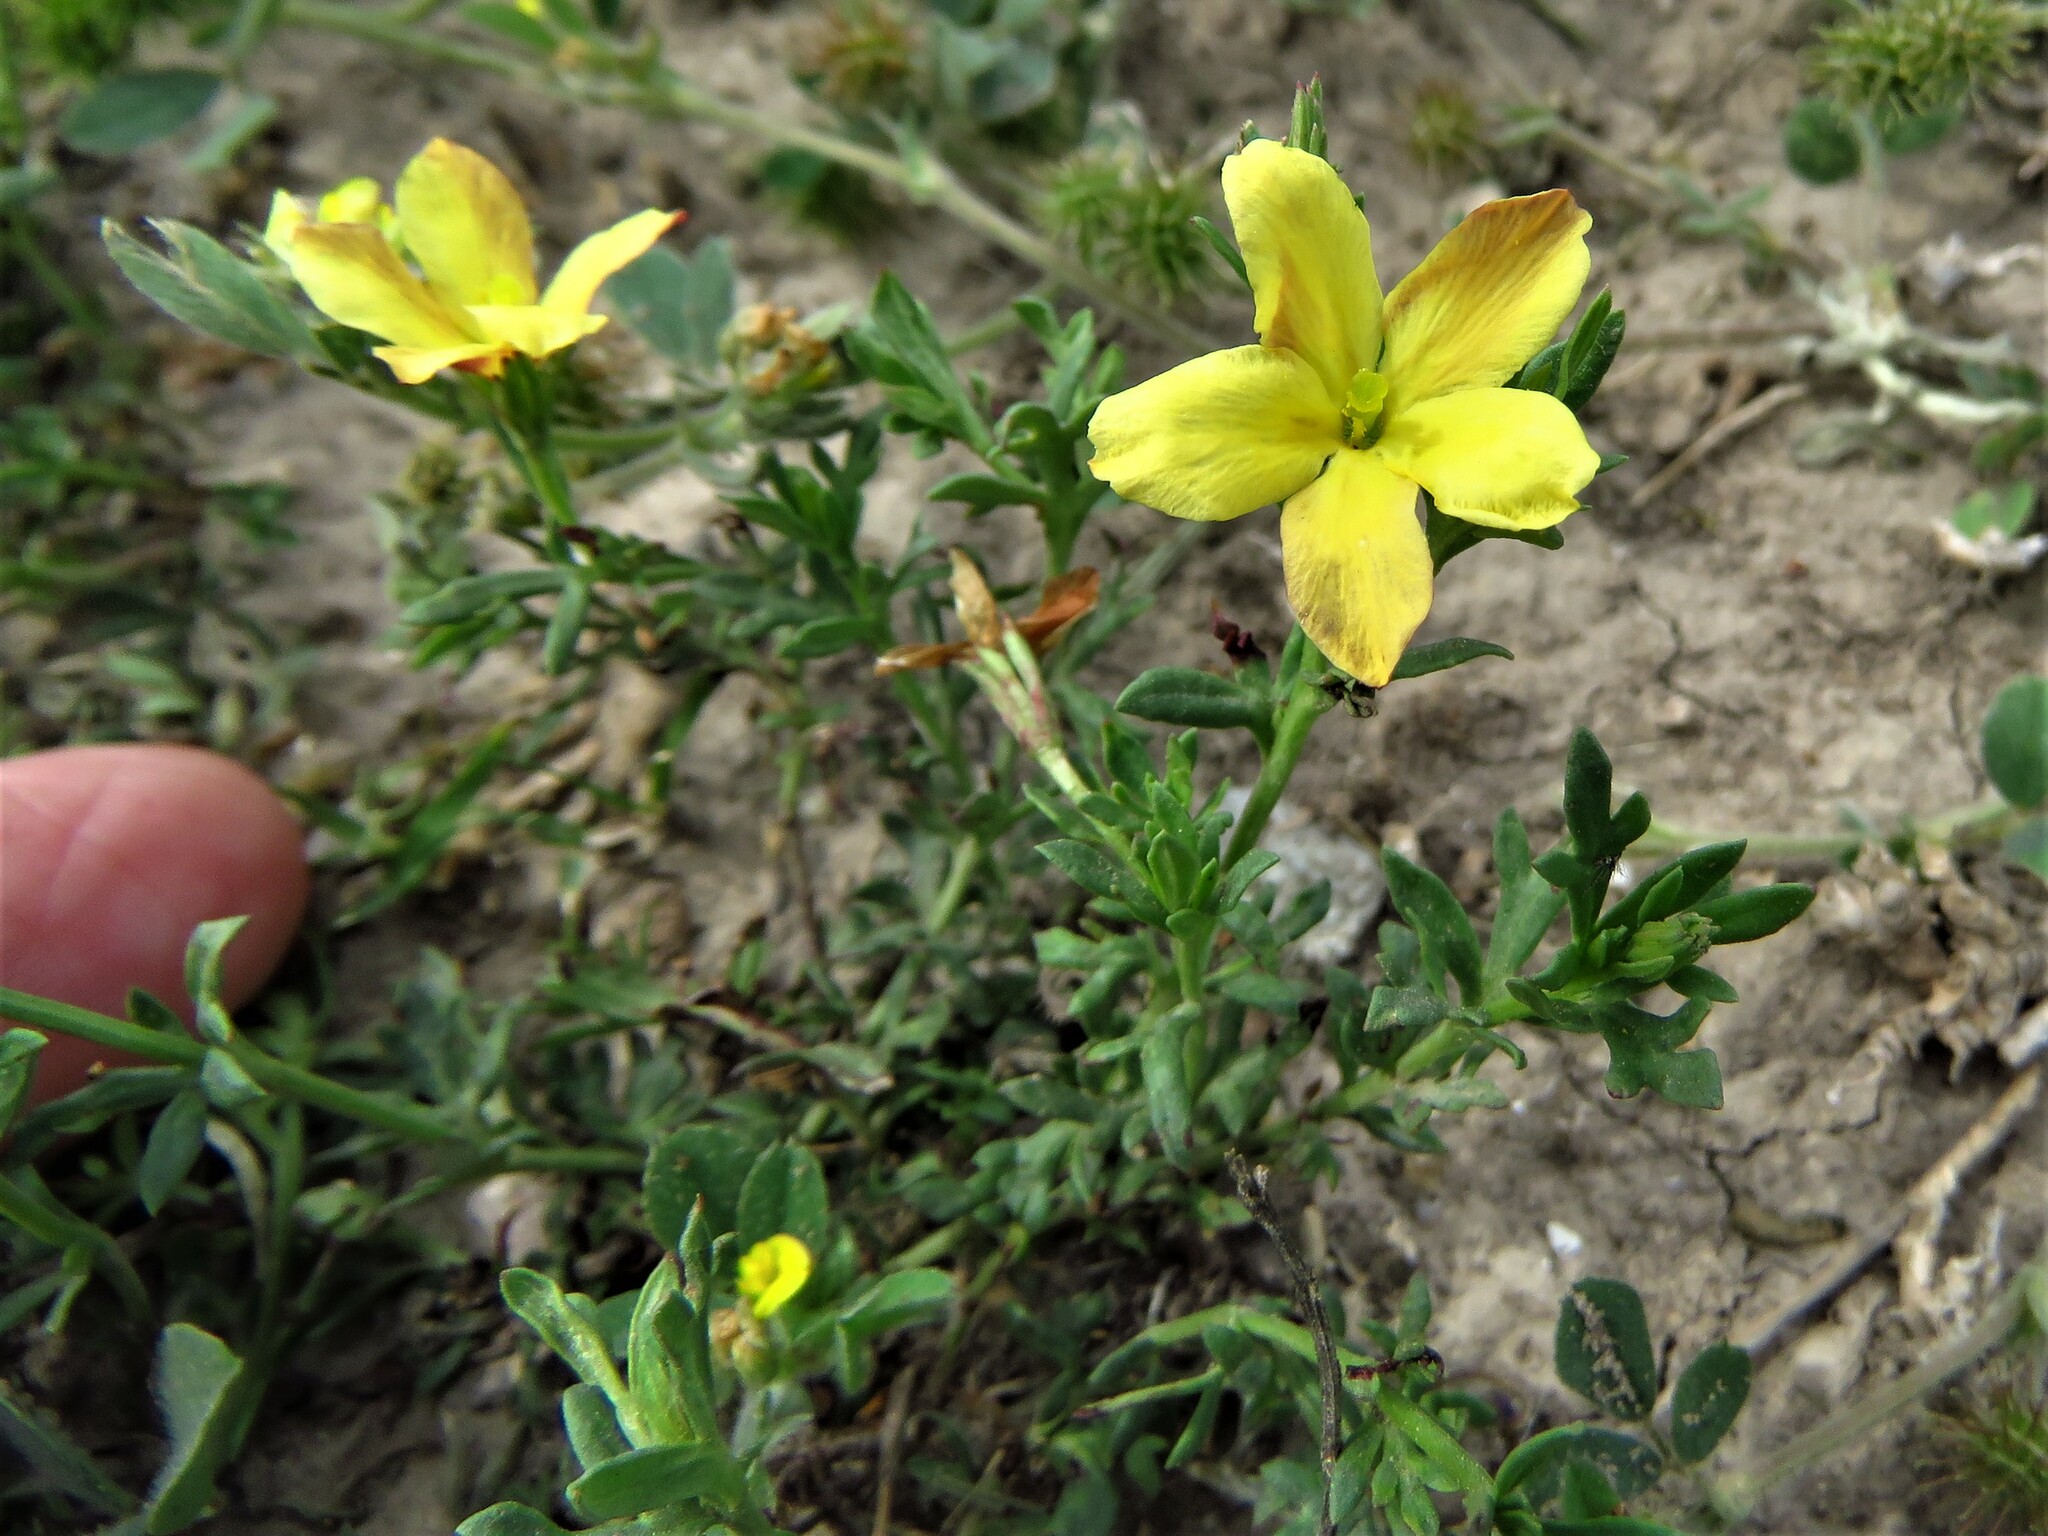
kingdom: Plantae
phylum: Tracheophyta
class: Magnoliopsida
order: Lamiales
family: Oleaceae
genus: Menodora
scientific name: Menodora heterophylla
